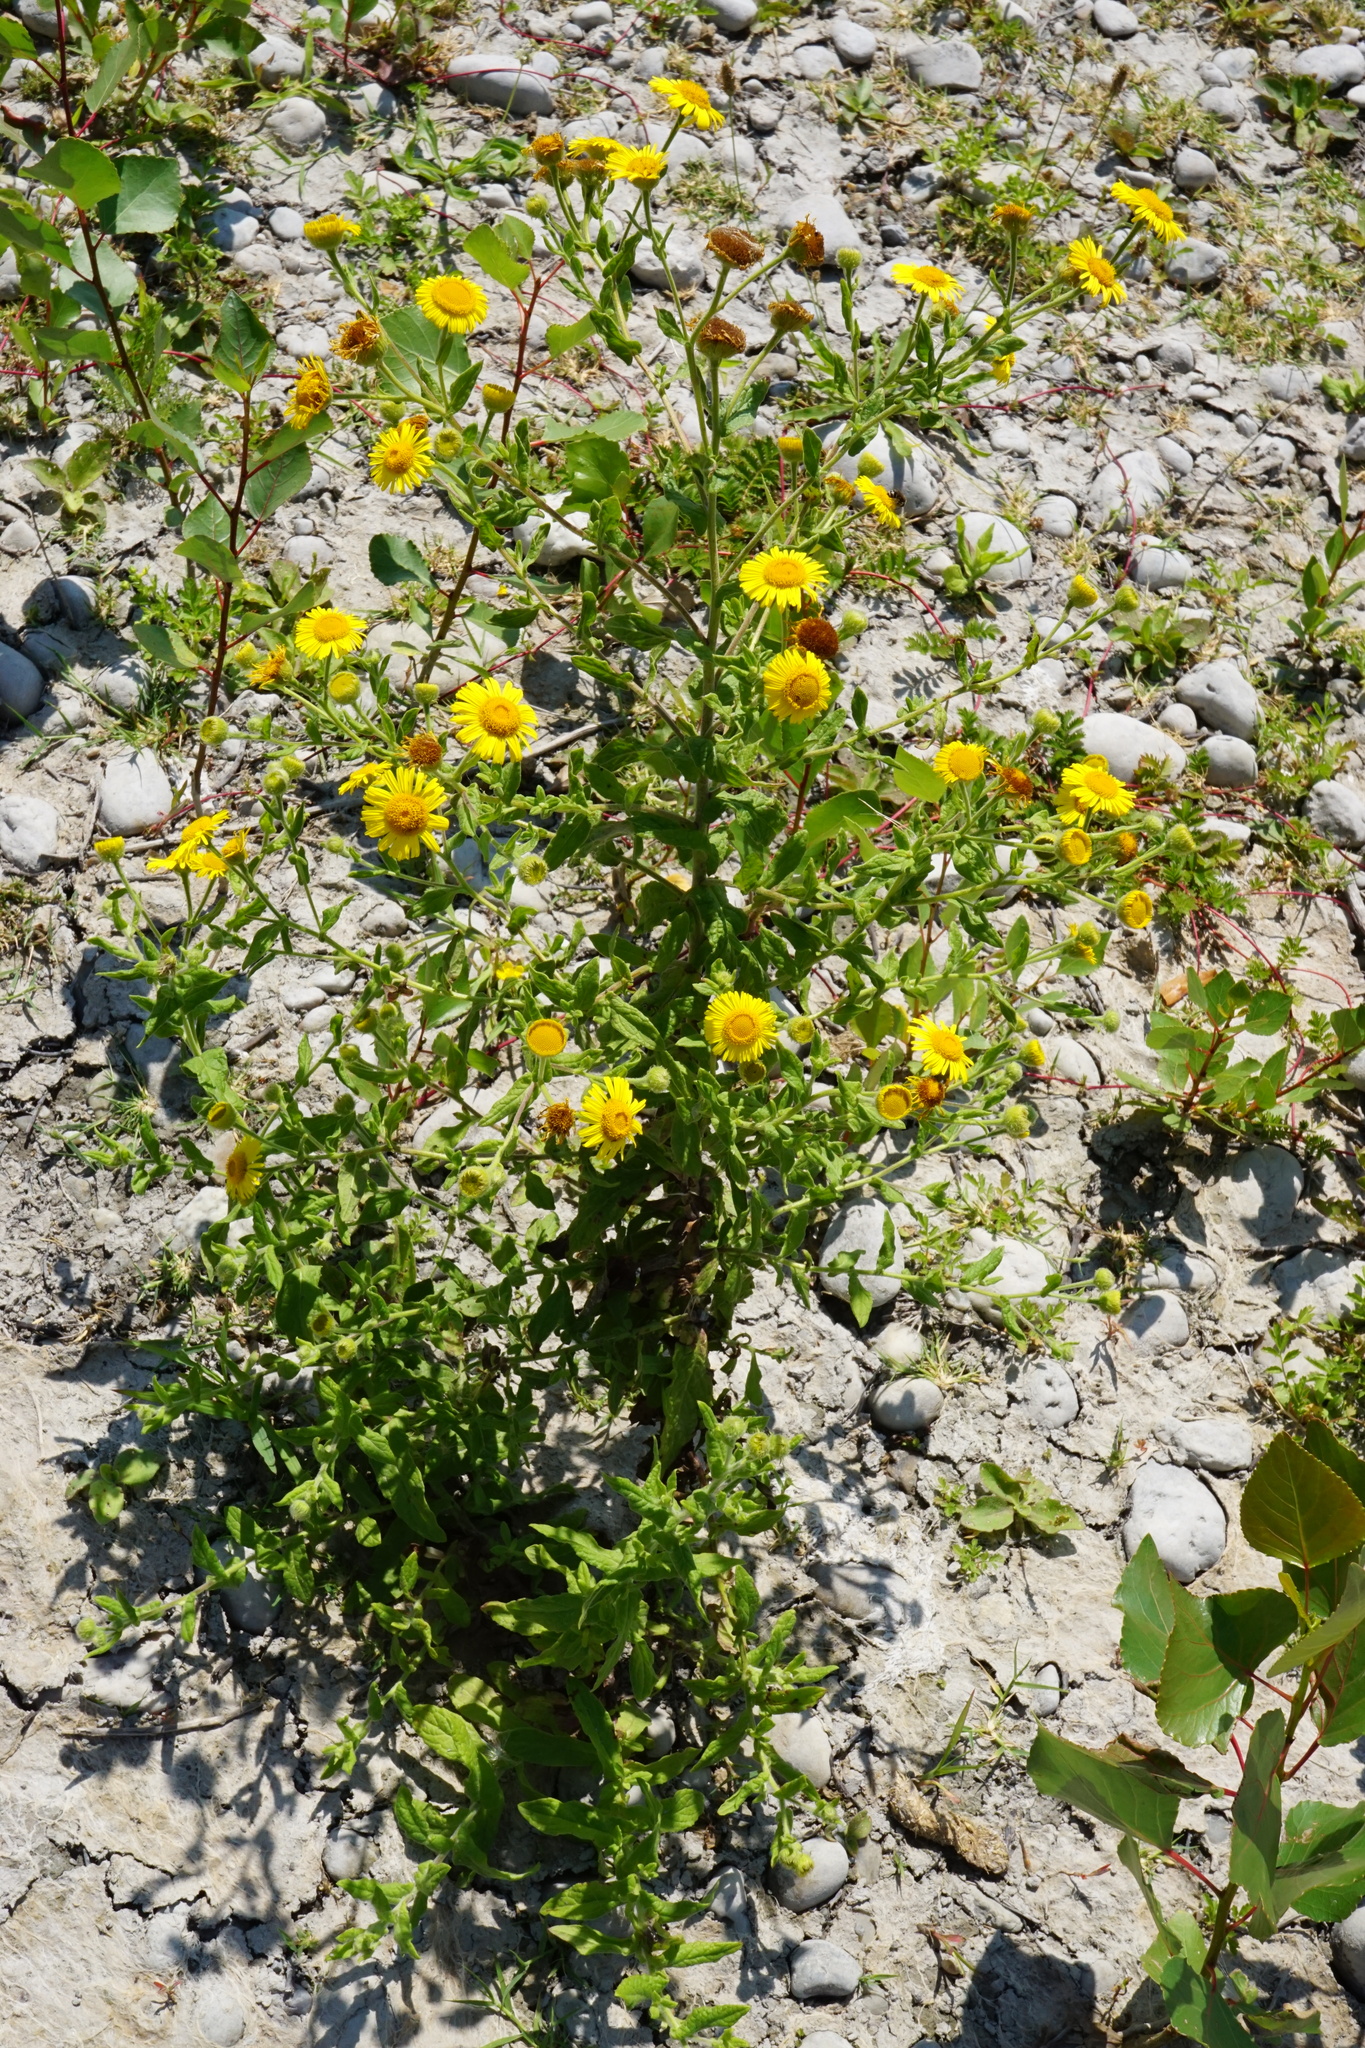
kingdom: Plantae
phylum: Tracheophyta
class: Magnoliopsida
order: Asterales
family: Asteraceae
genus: Pulicaria
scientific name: Pulicaria dysenterica
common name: Common fleabane
